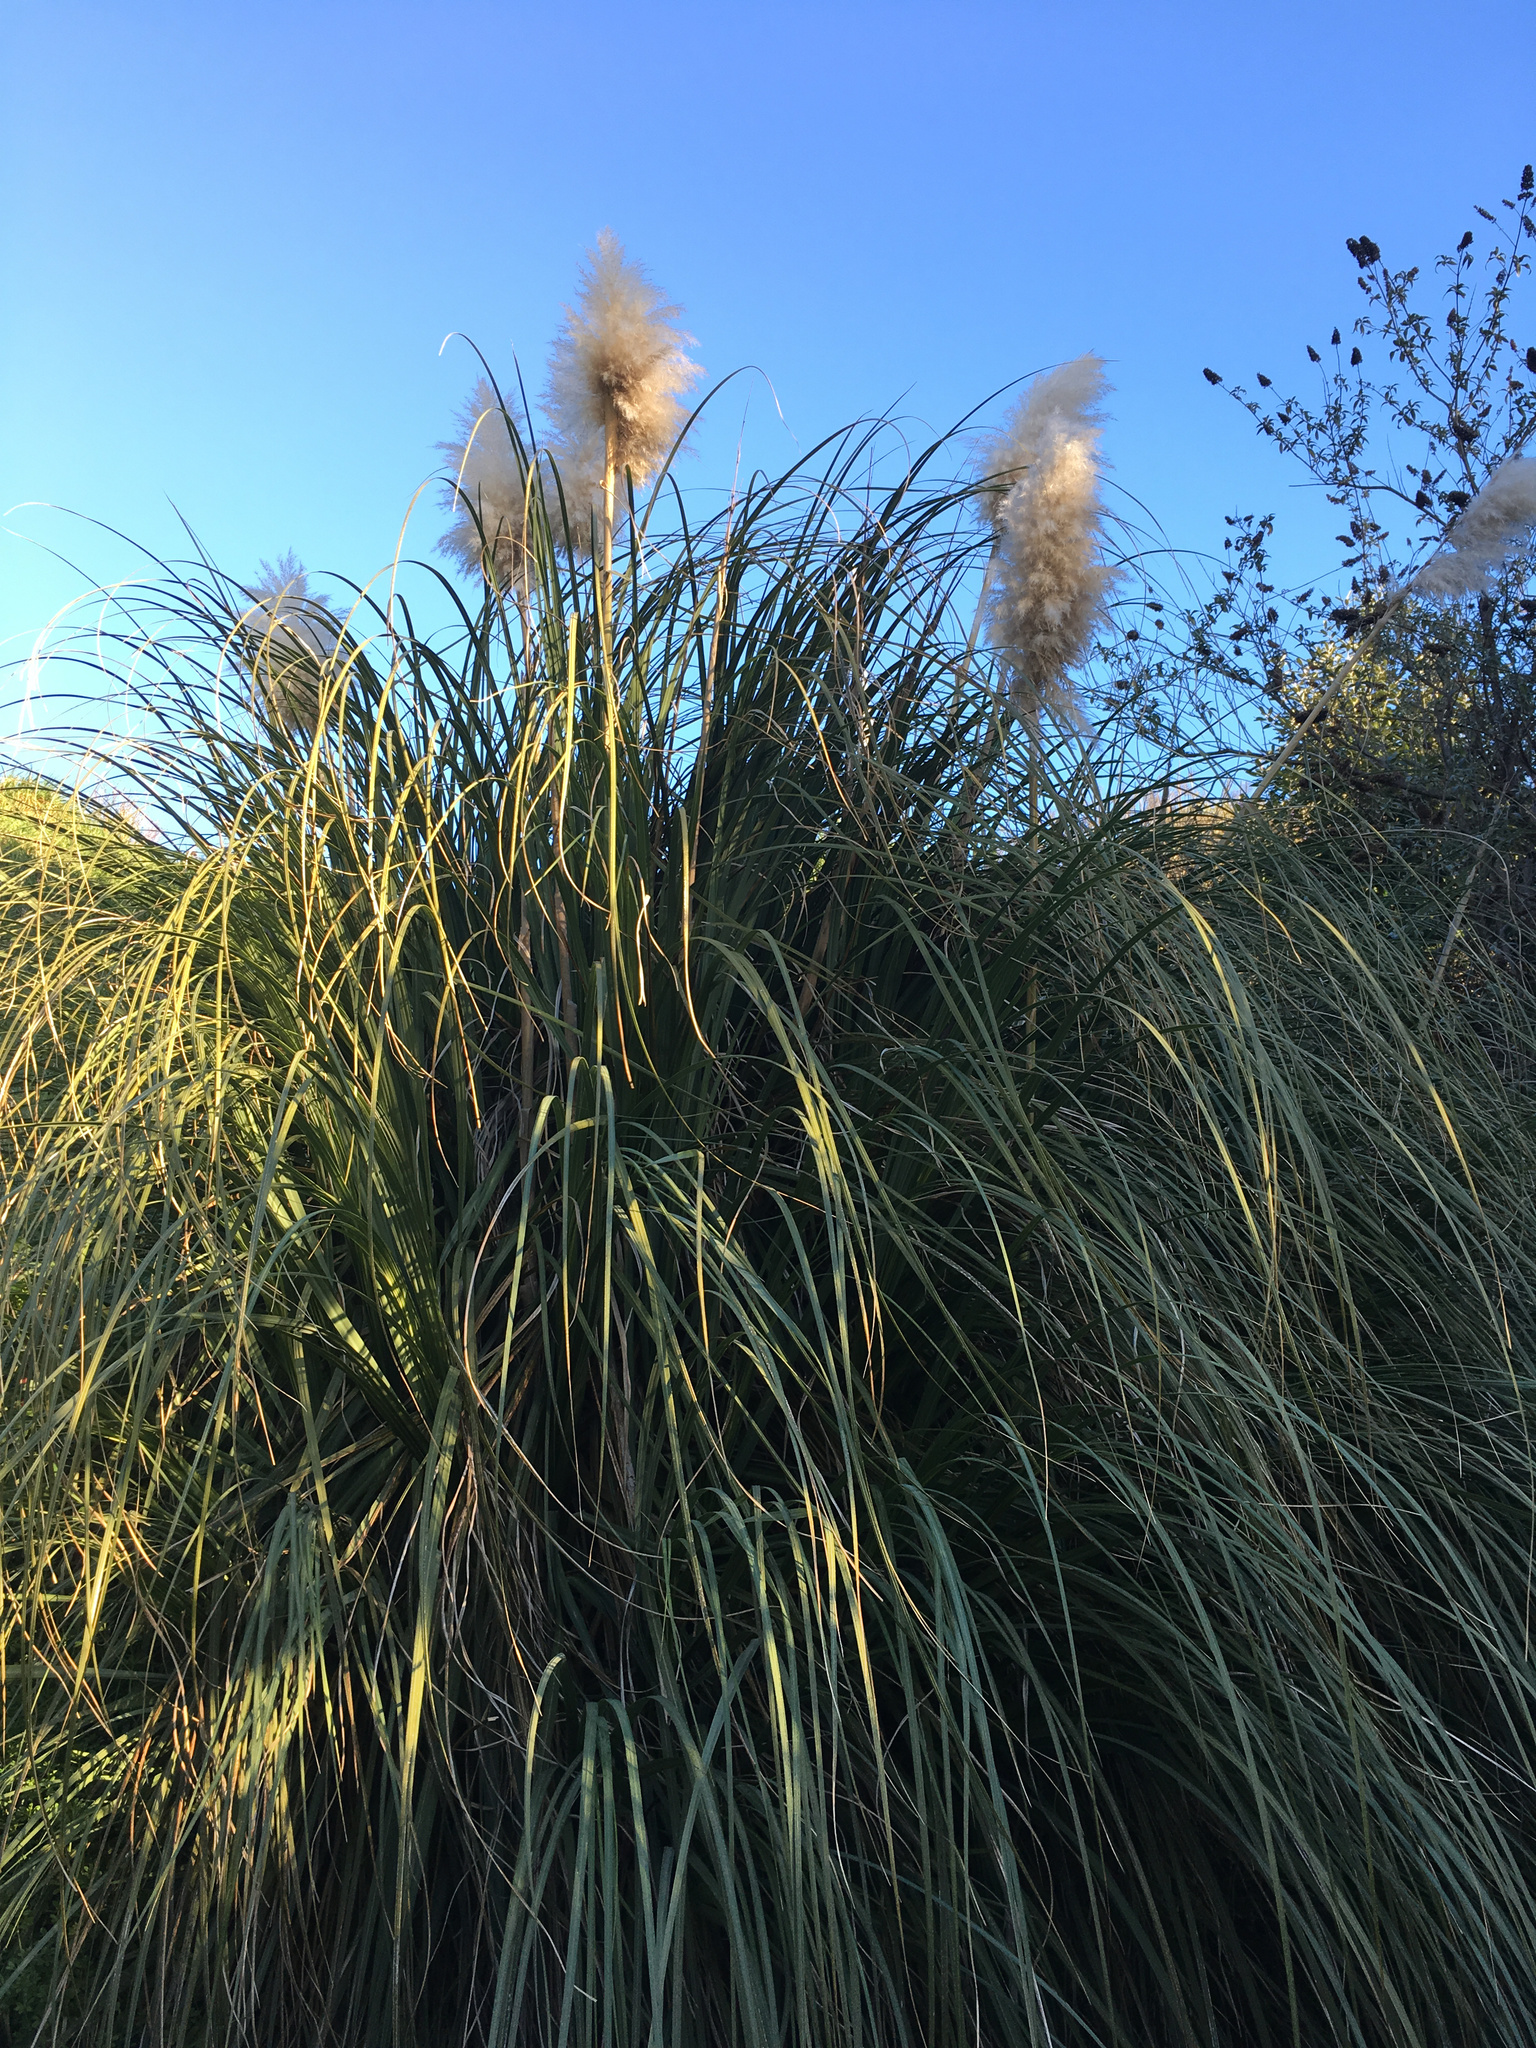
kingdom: Plantae
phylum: Tracheophyta
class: Liliopsida
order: Poales
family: Poaceae
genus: Cortaderia
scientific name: Cortaderia selloana
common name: Uruguayan pampas grass
